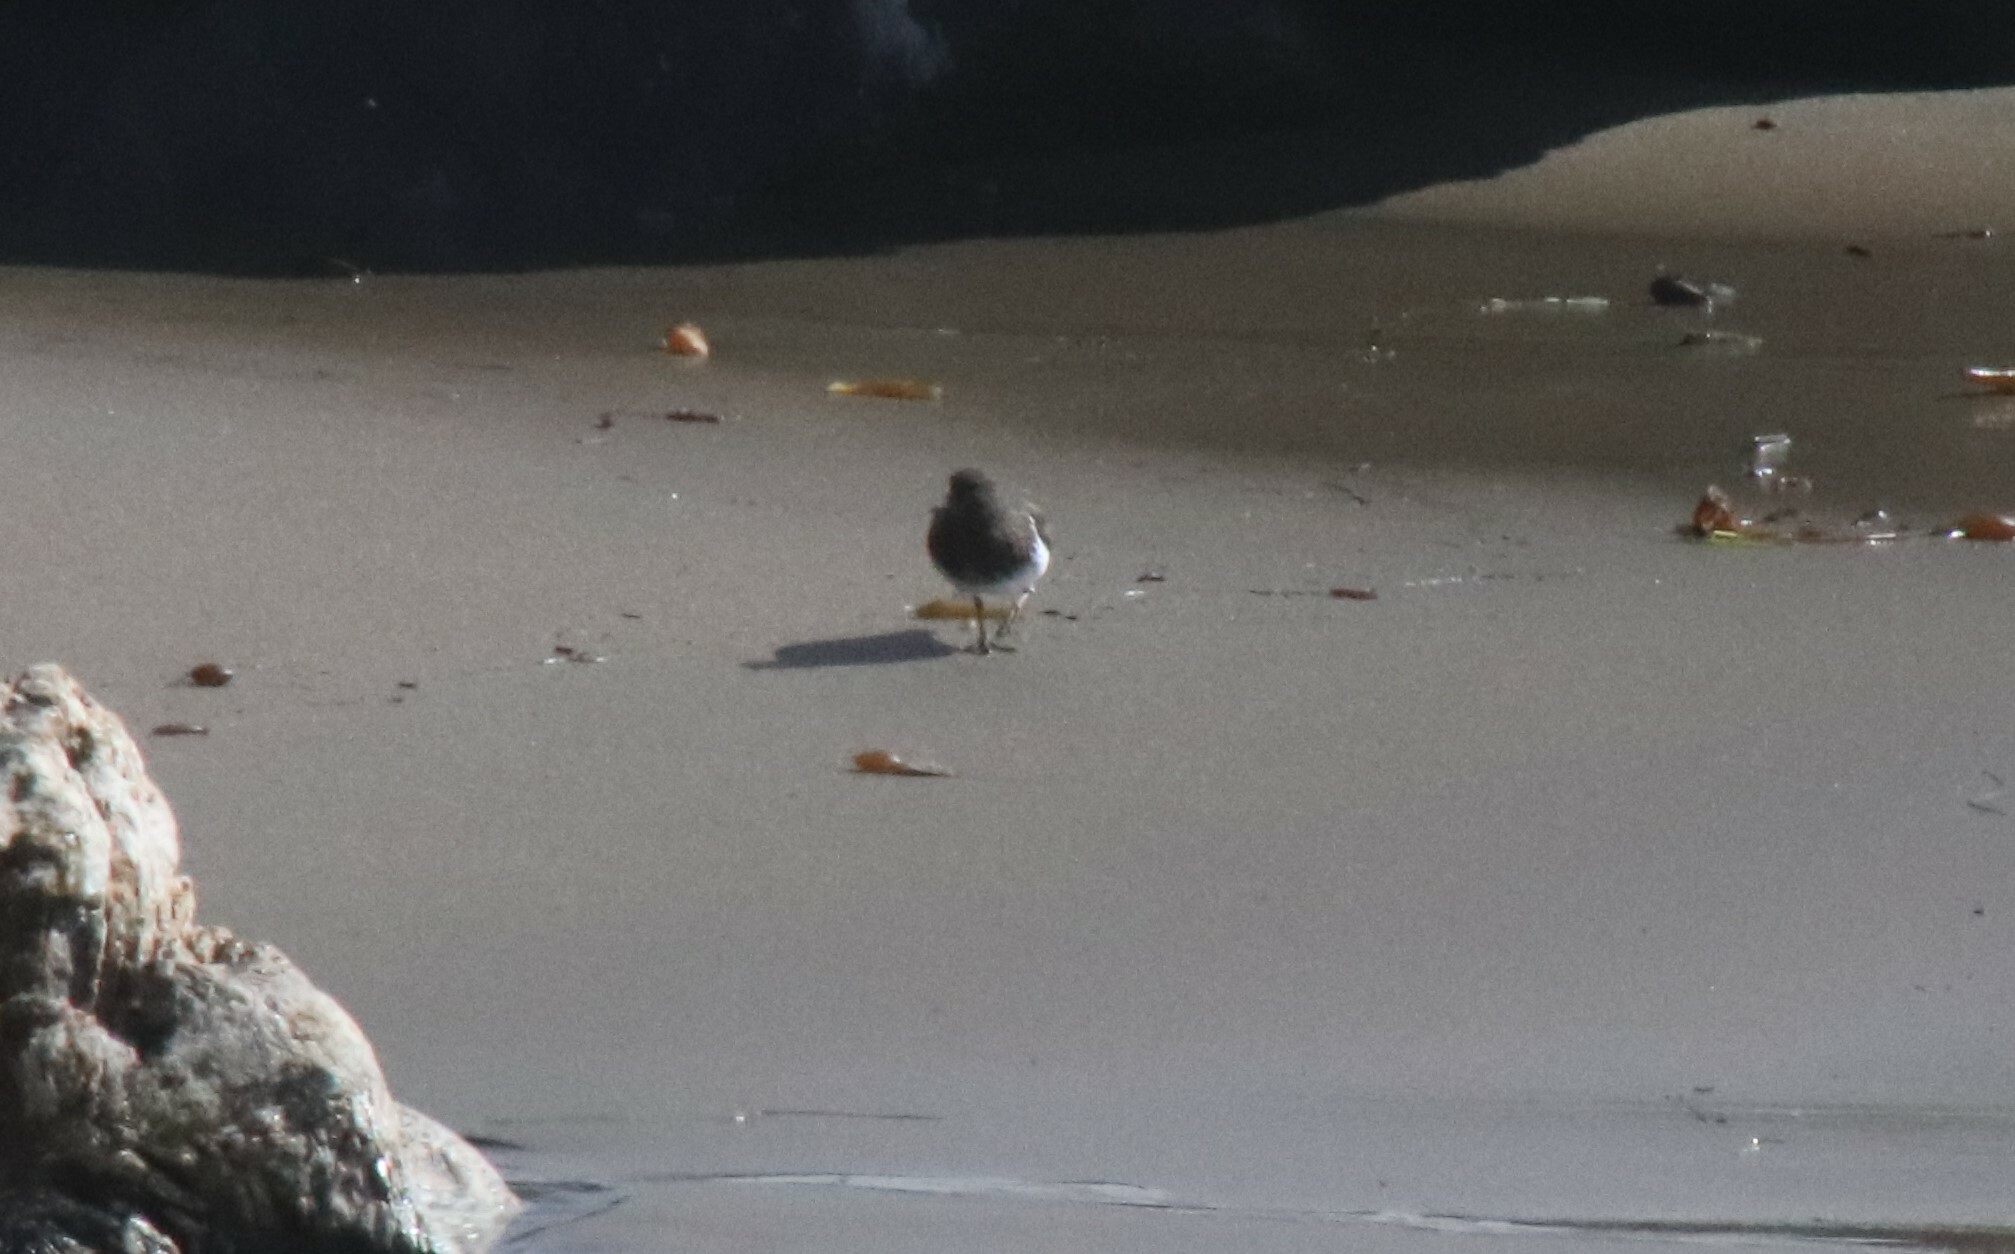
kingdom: Animalia
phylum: Chordata
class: Aves
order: Charadriiformes
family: Scolopacidae
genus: Arenaria
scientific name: Arenaria melanocephala
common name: Black turnstone
